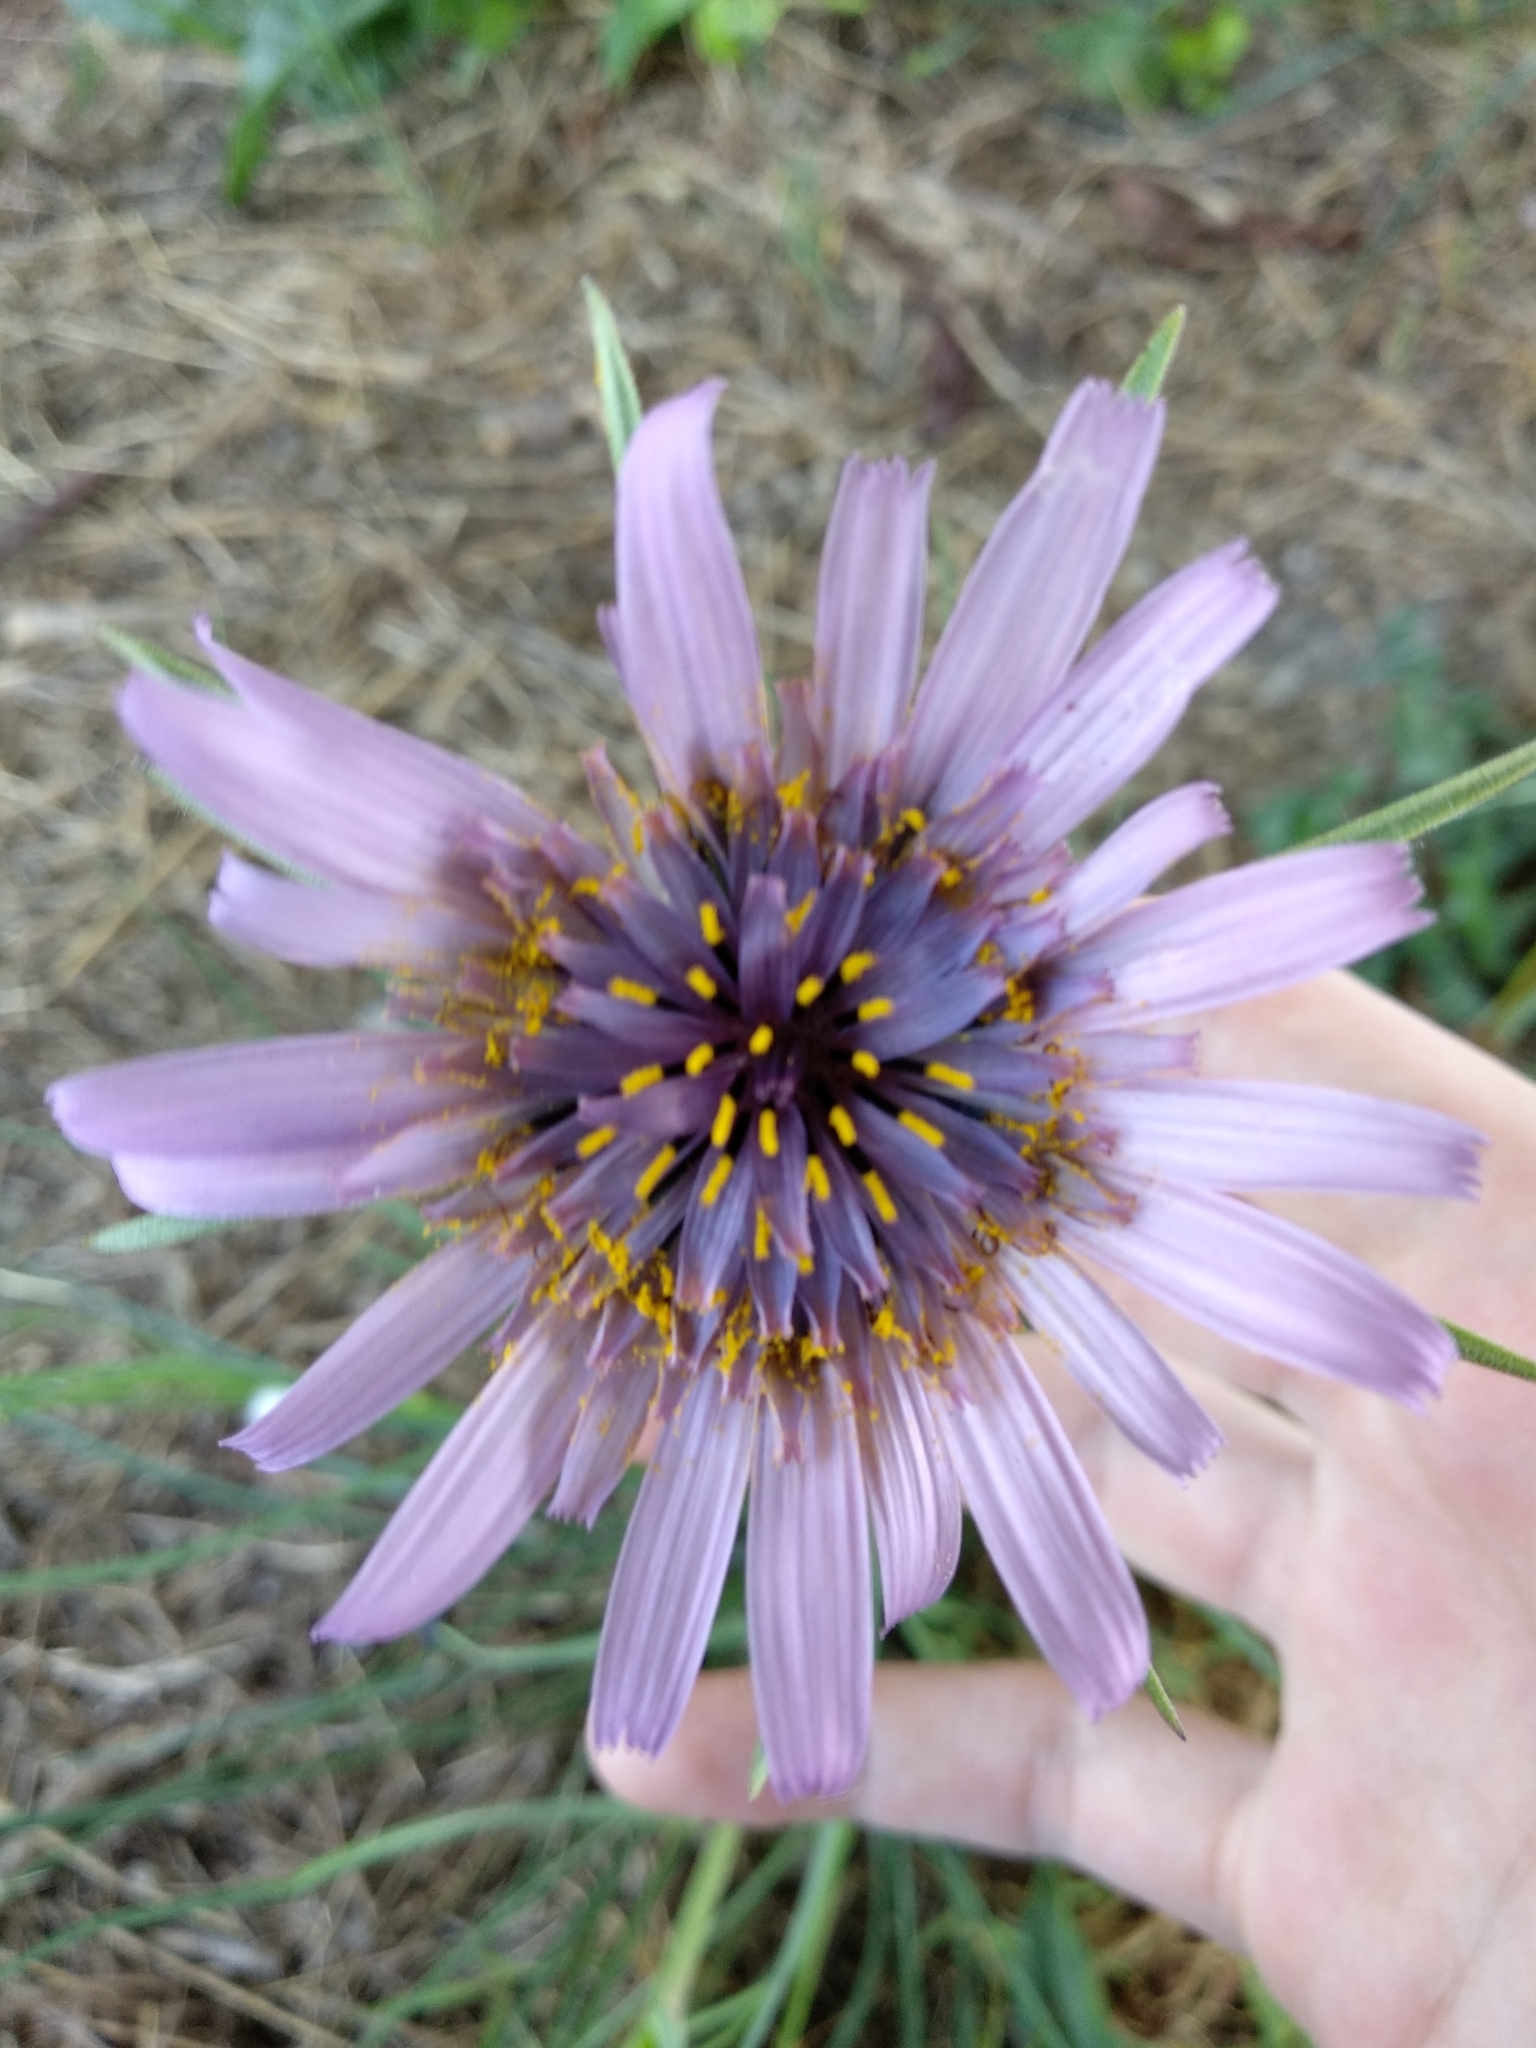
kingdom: Plantae
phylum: Tracheophyta
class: Magnoliopsida
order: Asterales
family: Asteraceae
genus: Tragopogon
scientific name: Tragopogon porrifolius
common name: Salsify
